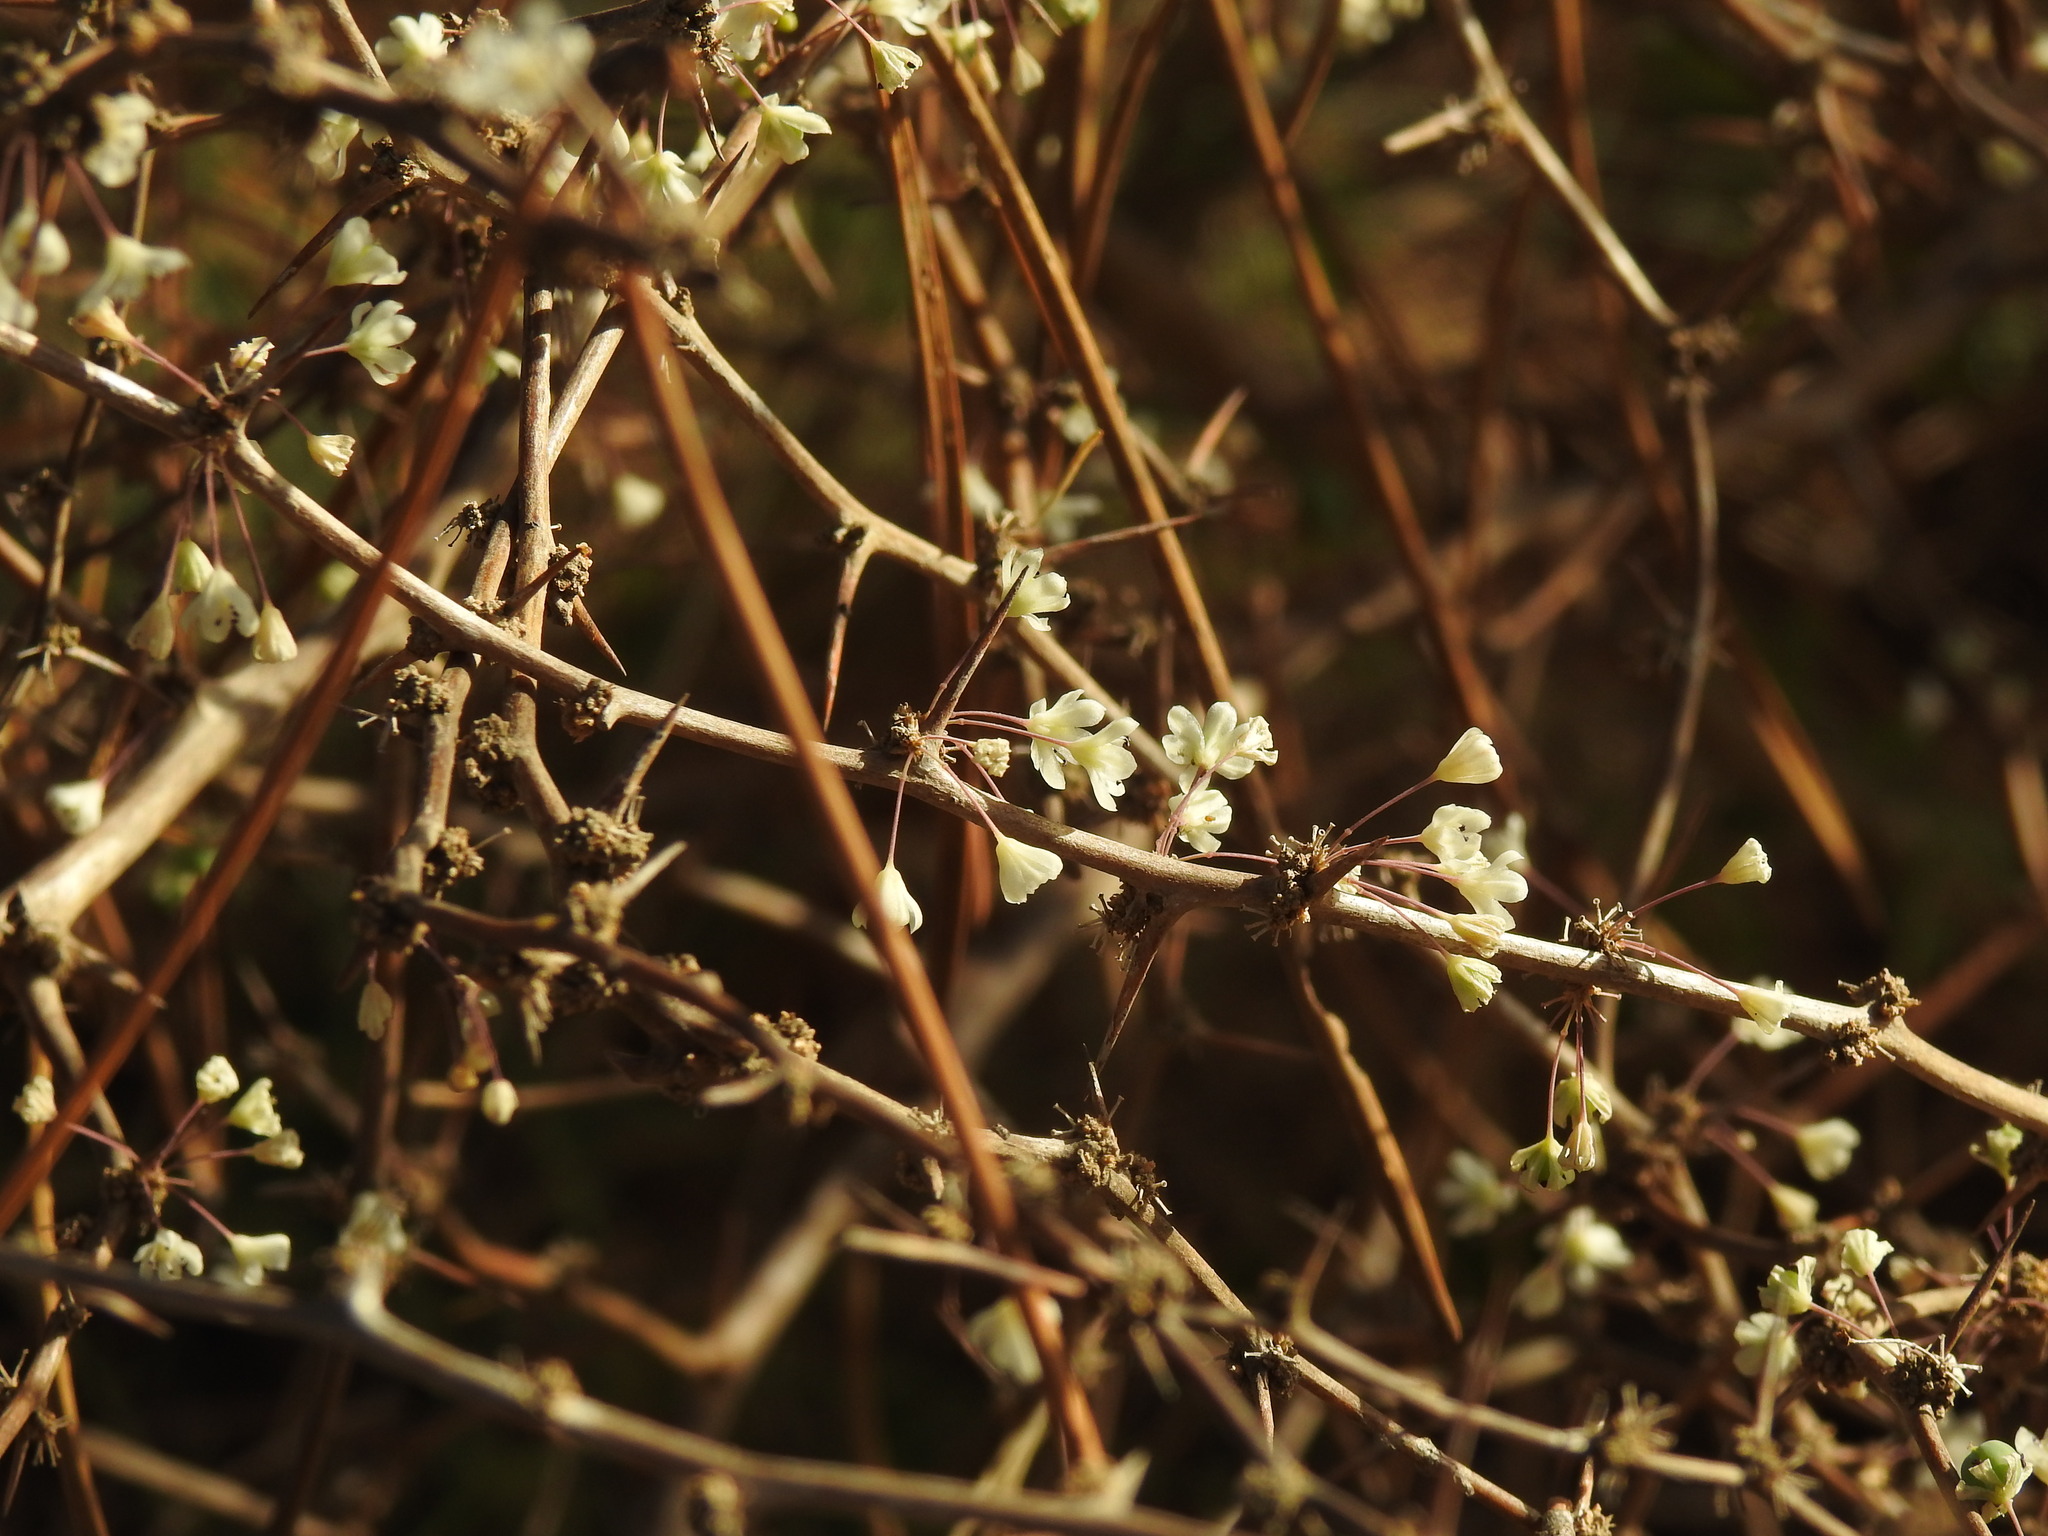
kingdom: Plantae
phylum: Tracheophyta
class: Liliopsida
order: Asparagales
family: Asparagaceae
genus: Asparagus
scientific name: Asparagus albus
